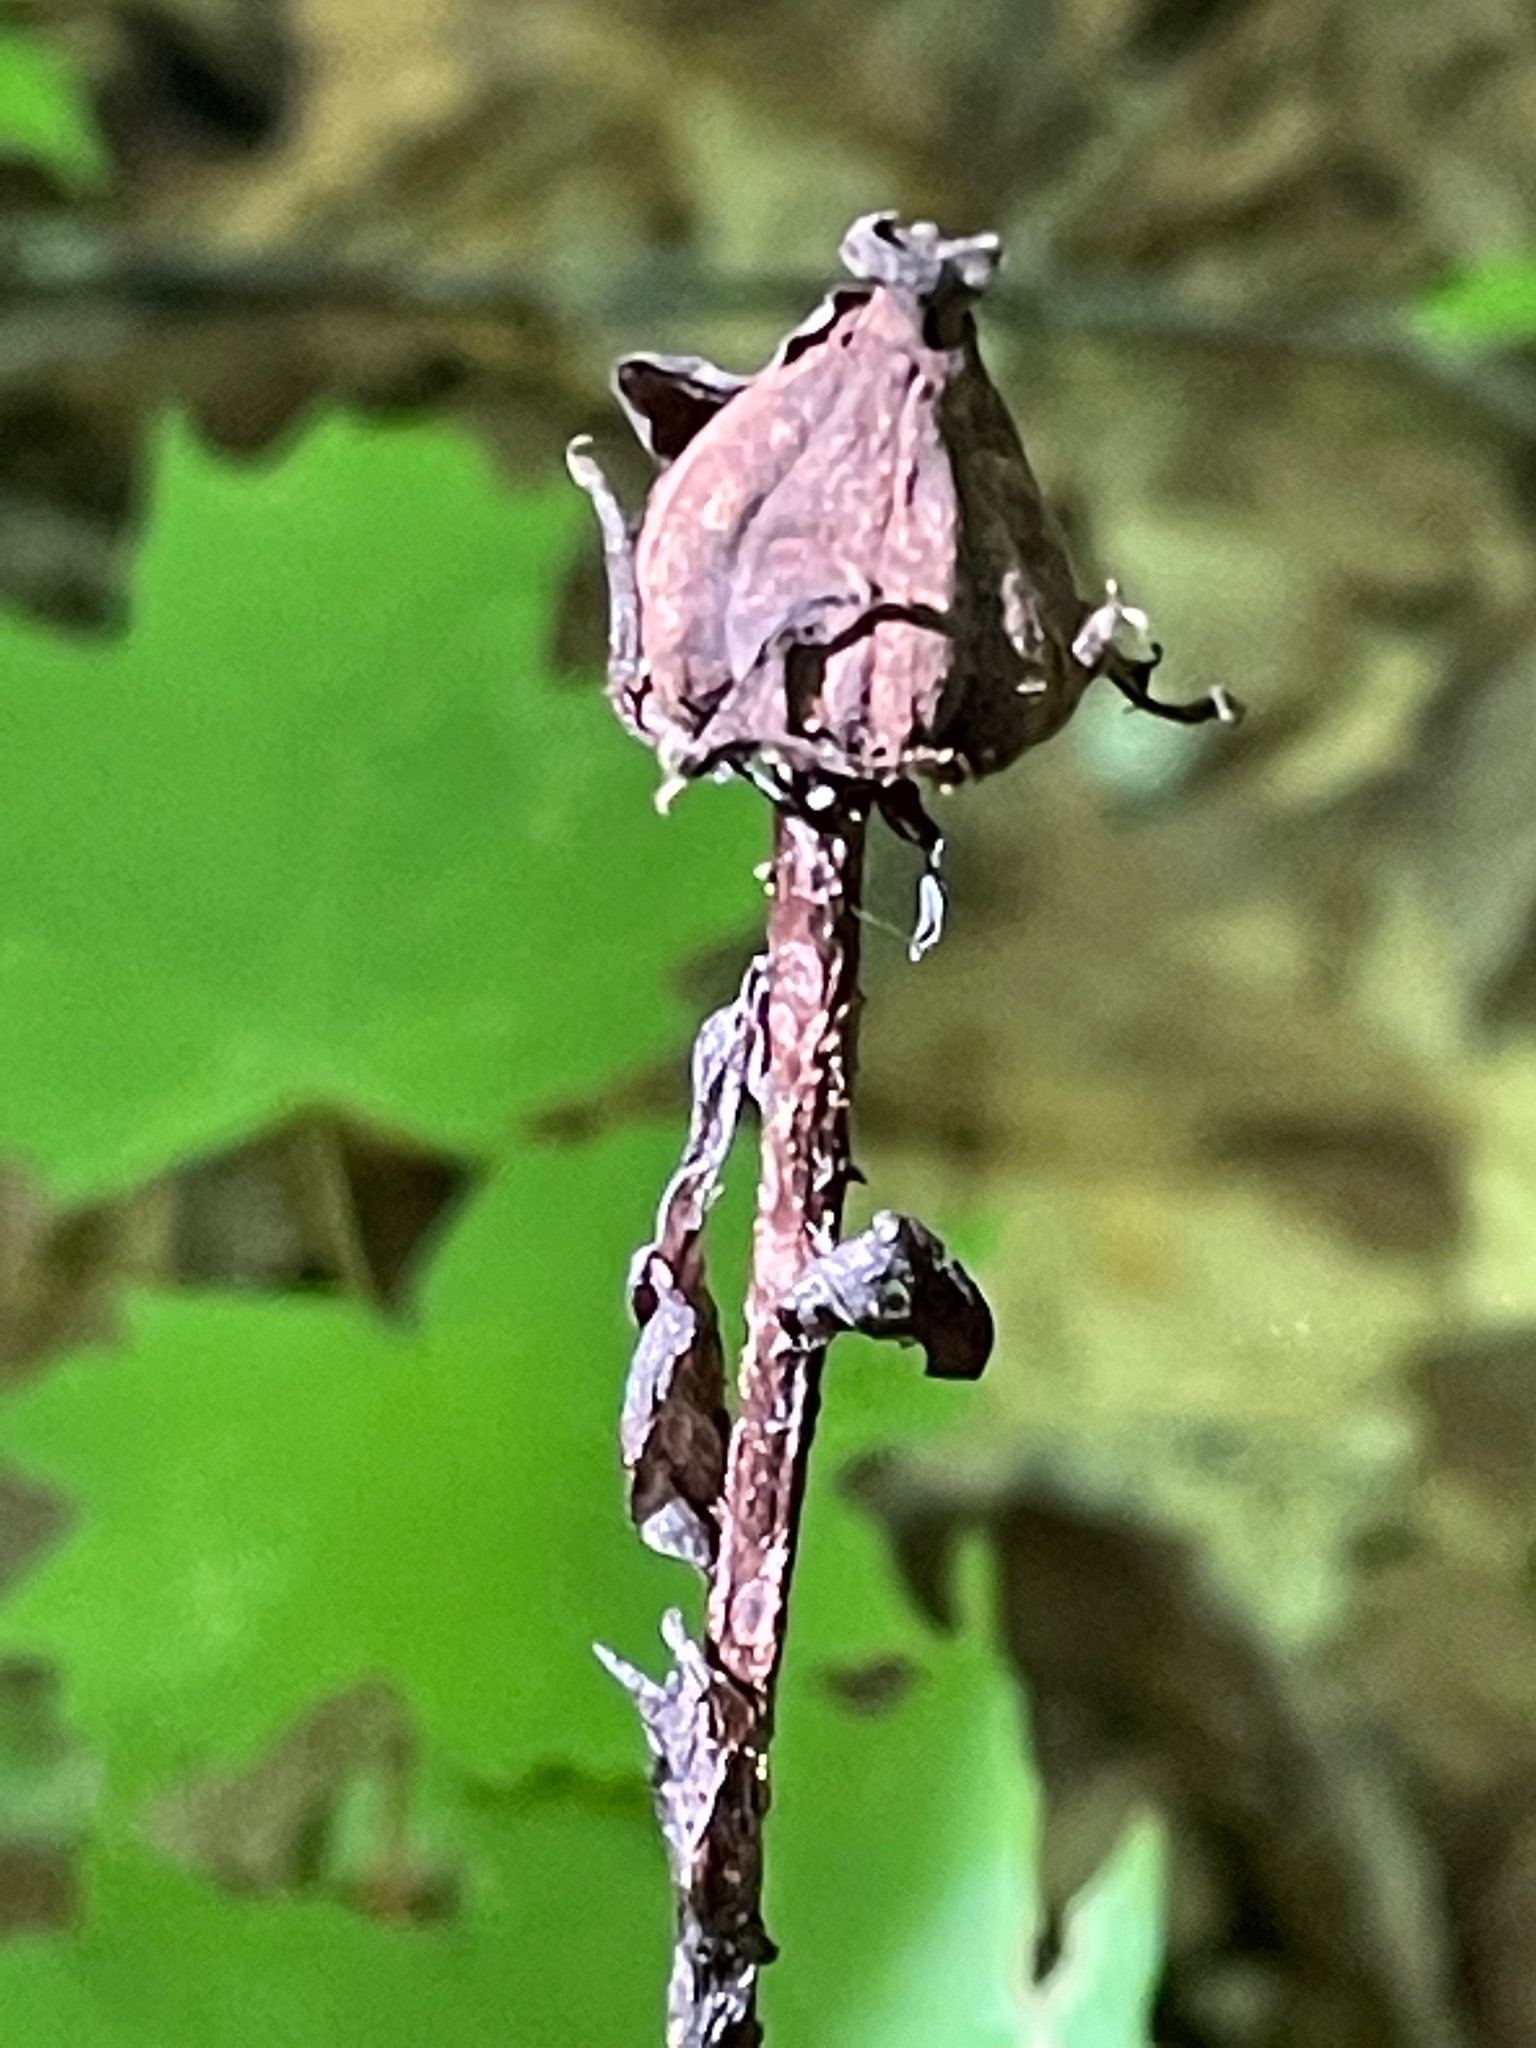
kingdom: Plantae
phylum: Tracheophyta
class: Magnoliopsida
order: Ericales
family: Ericaceae
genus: Monotropa
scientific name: Monotropa uniflora
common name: Convulsion root
